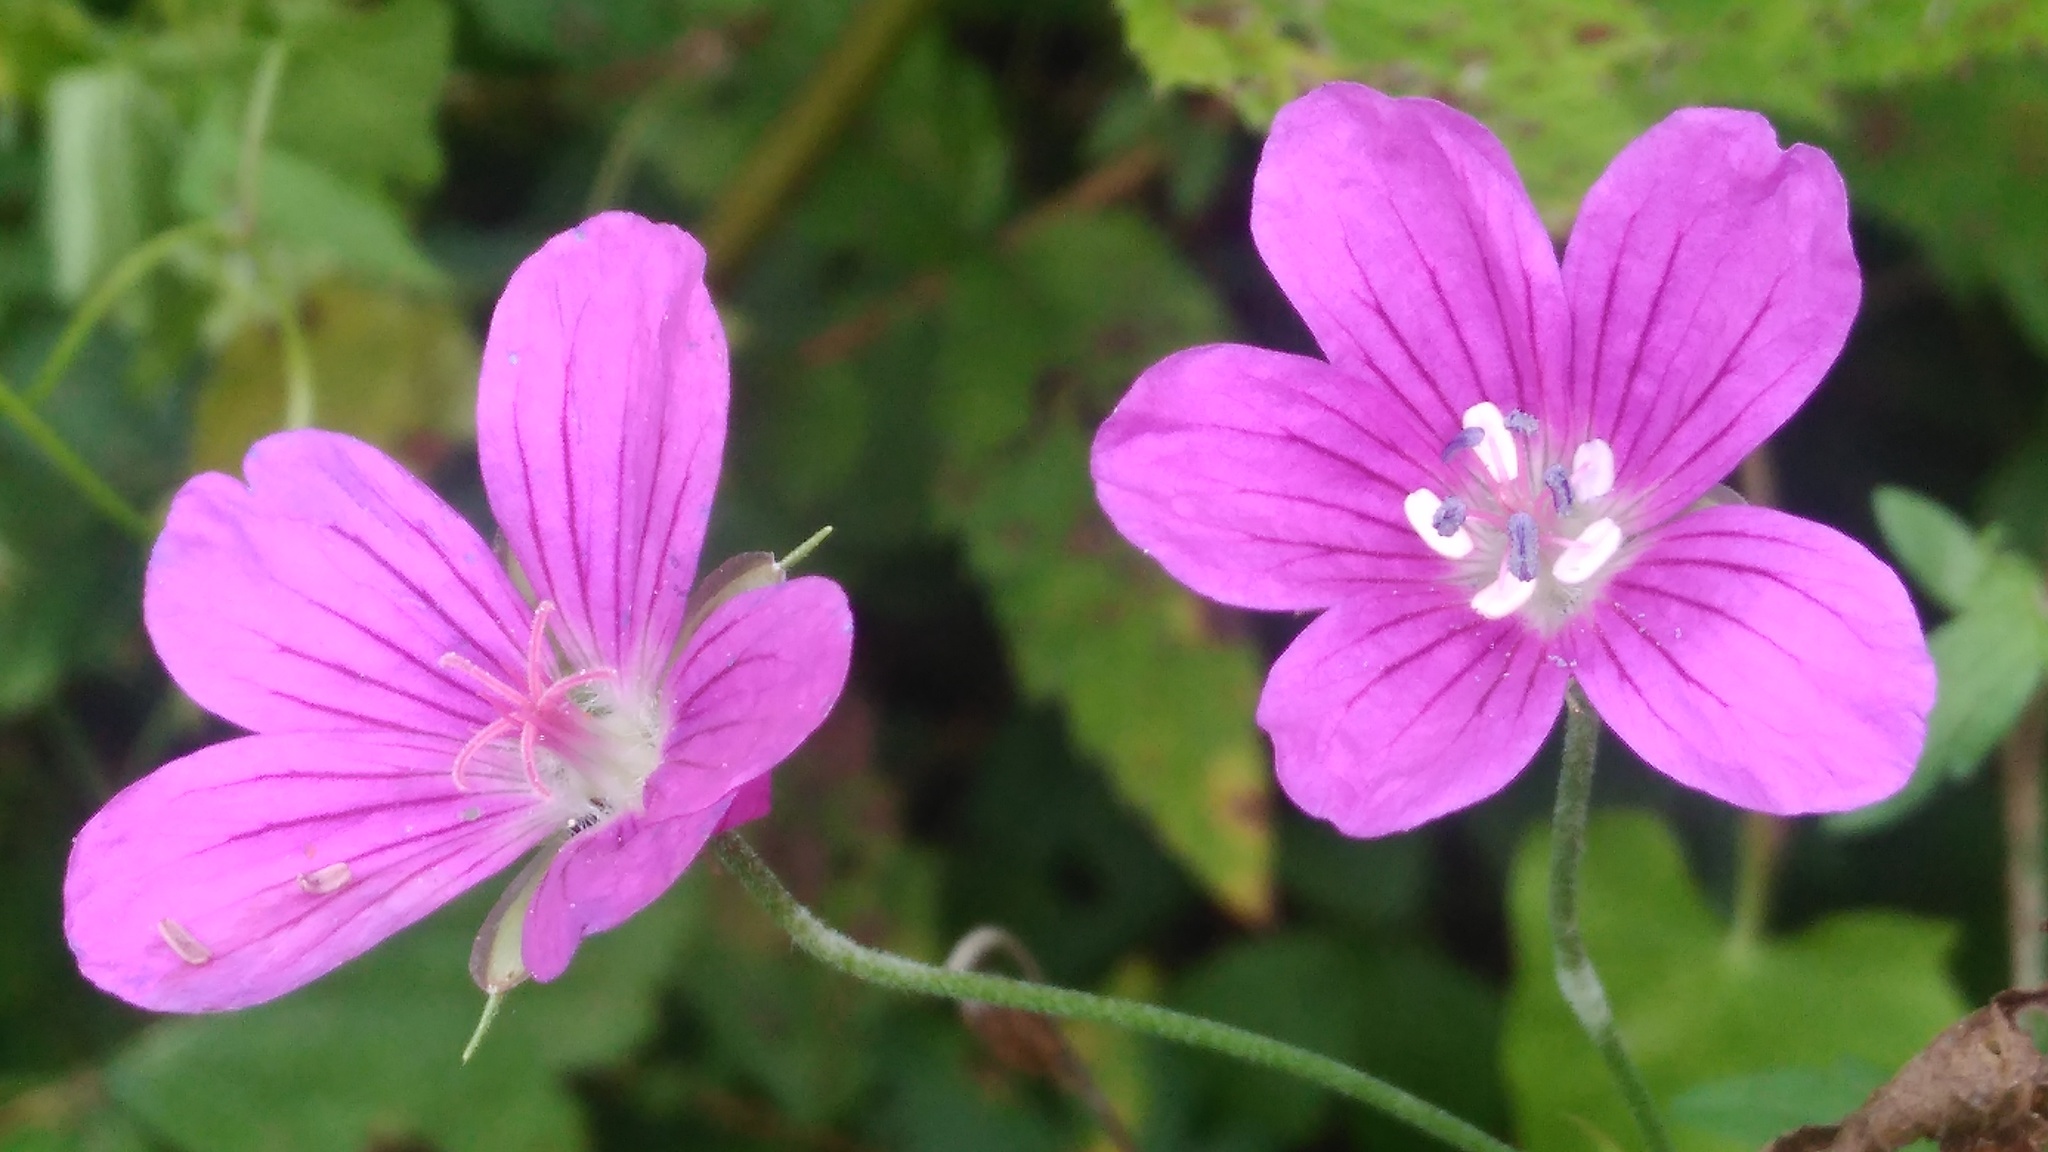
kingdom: Plantae
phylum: Tracheophyta
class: Magnoliopsida
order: Geraniales
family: Geraniaceae
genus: Geranium
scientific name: Geranium palustre
